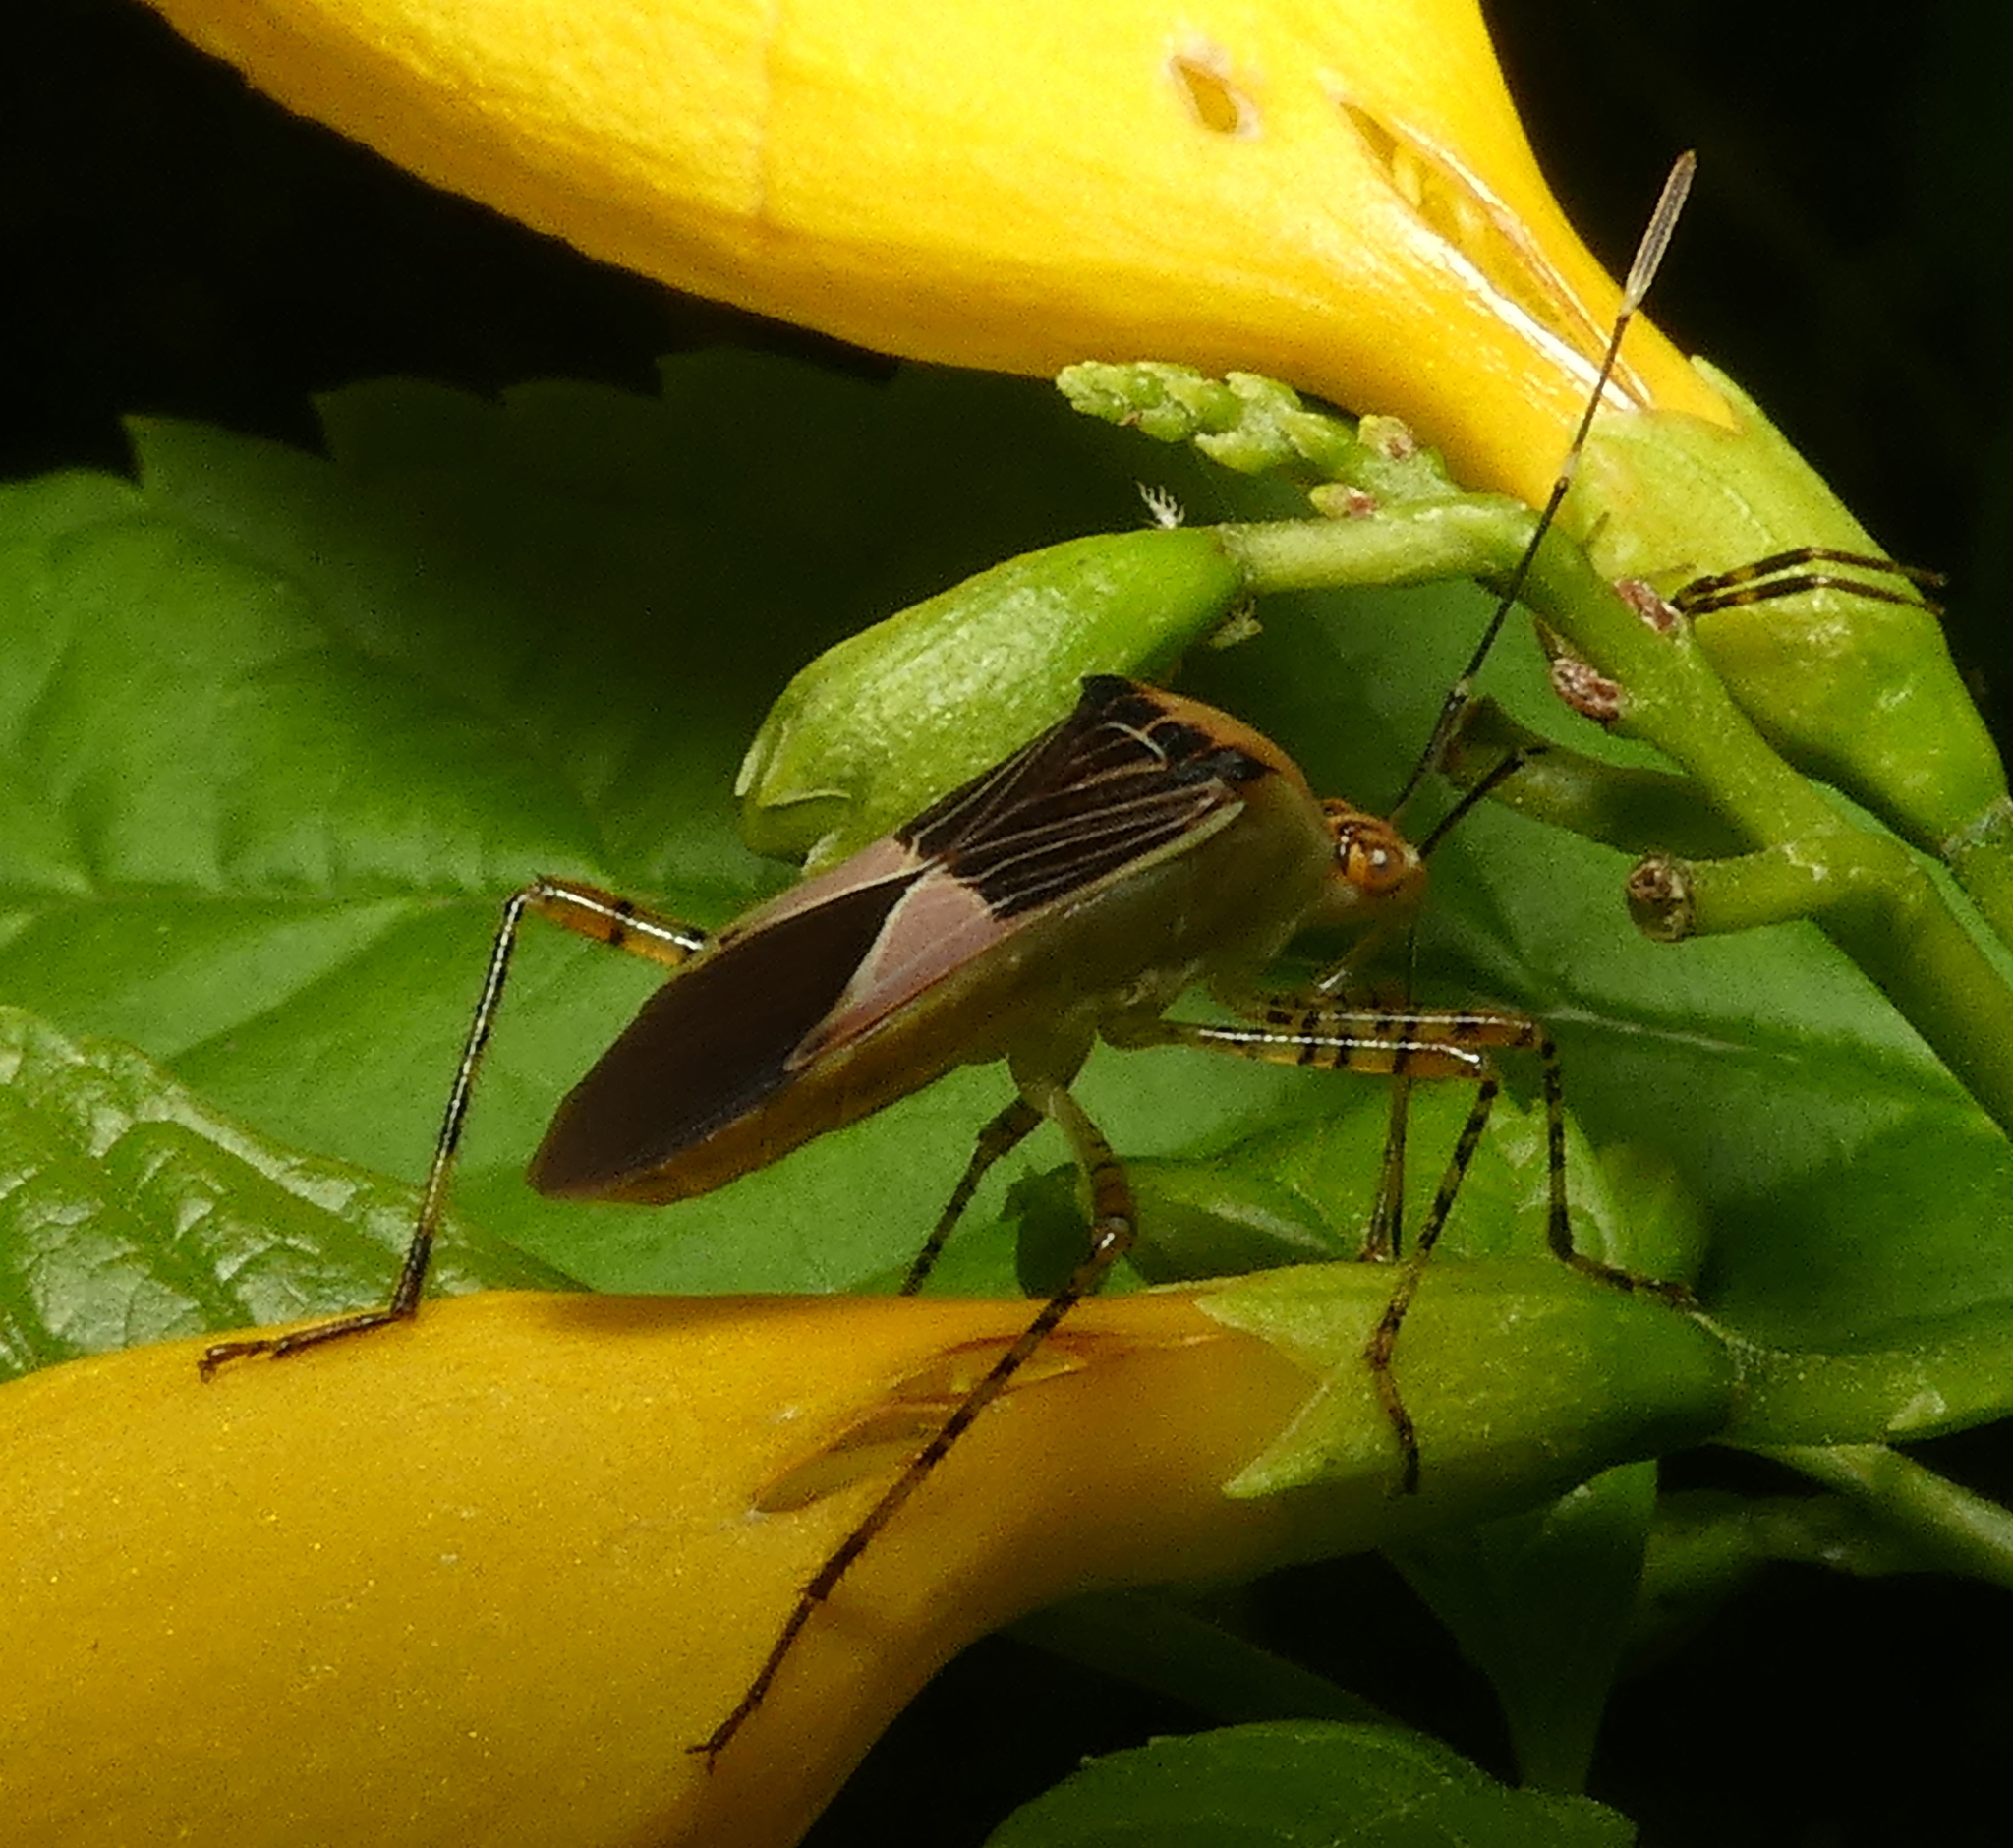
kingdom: Animalia
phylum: Arthropoda
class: Insecta
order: Hemiptera
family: Coreidae
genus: Hypselonotus
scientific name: Hypselonotus fulvus
